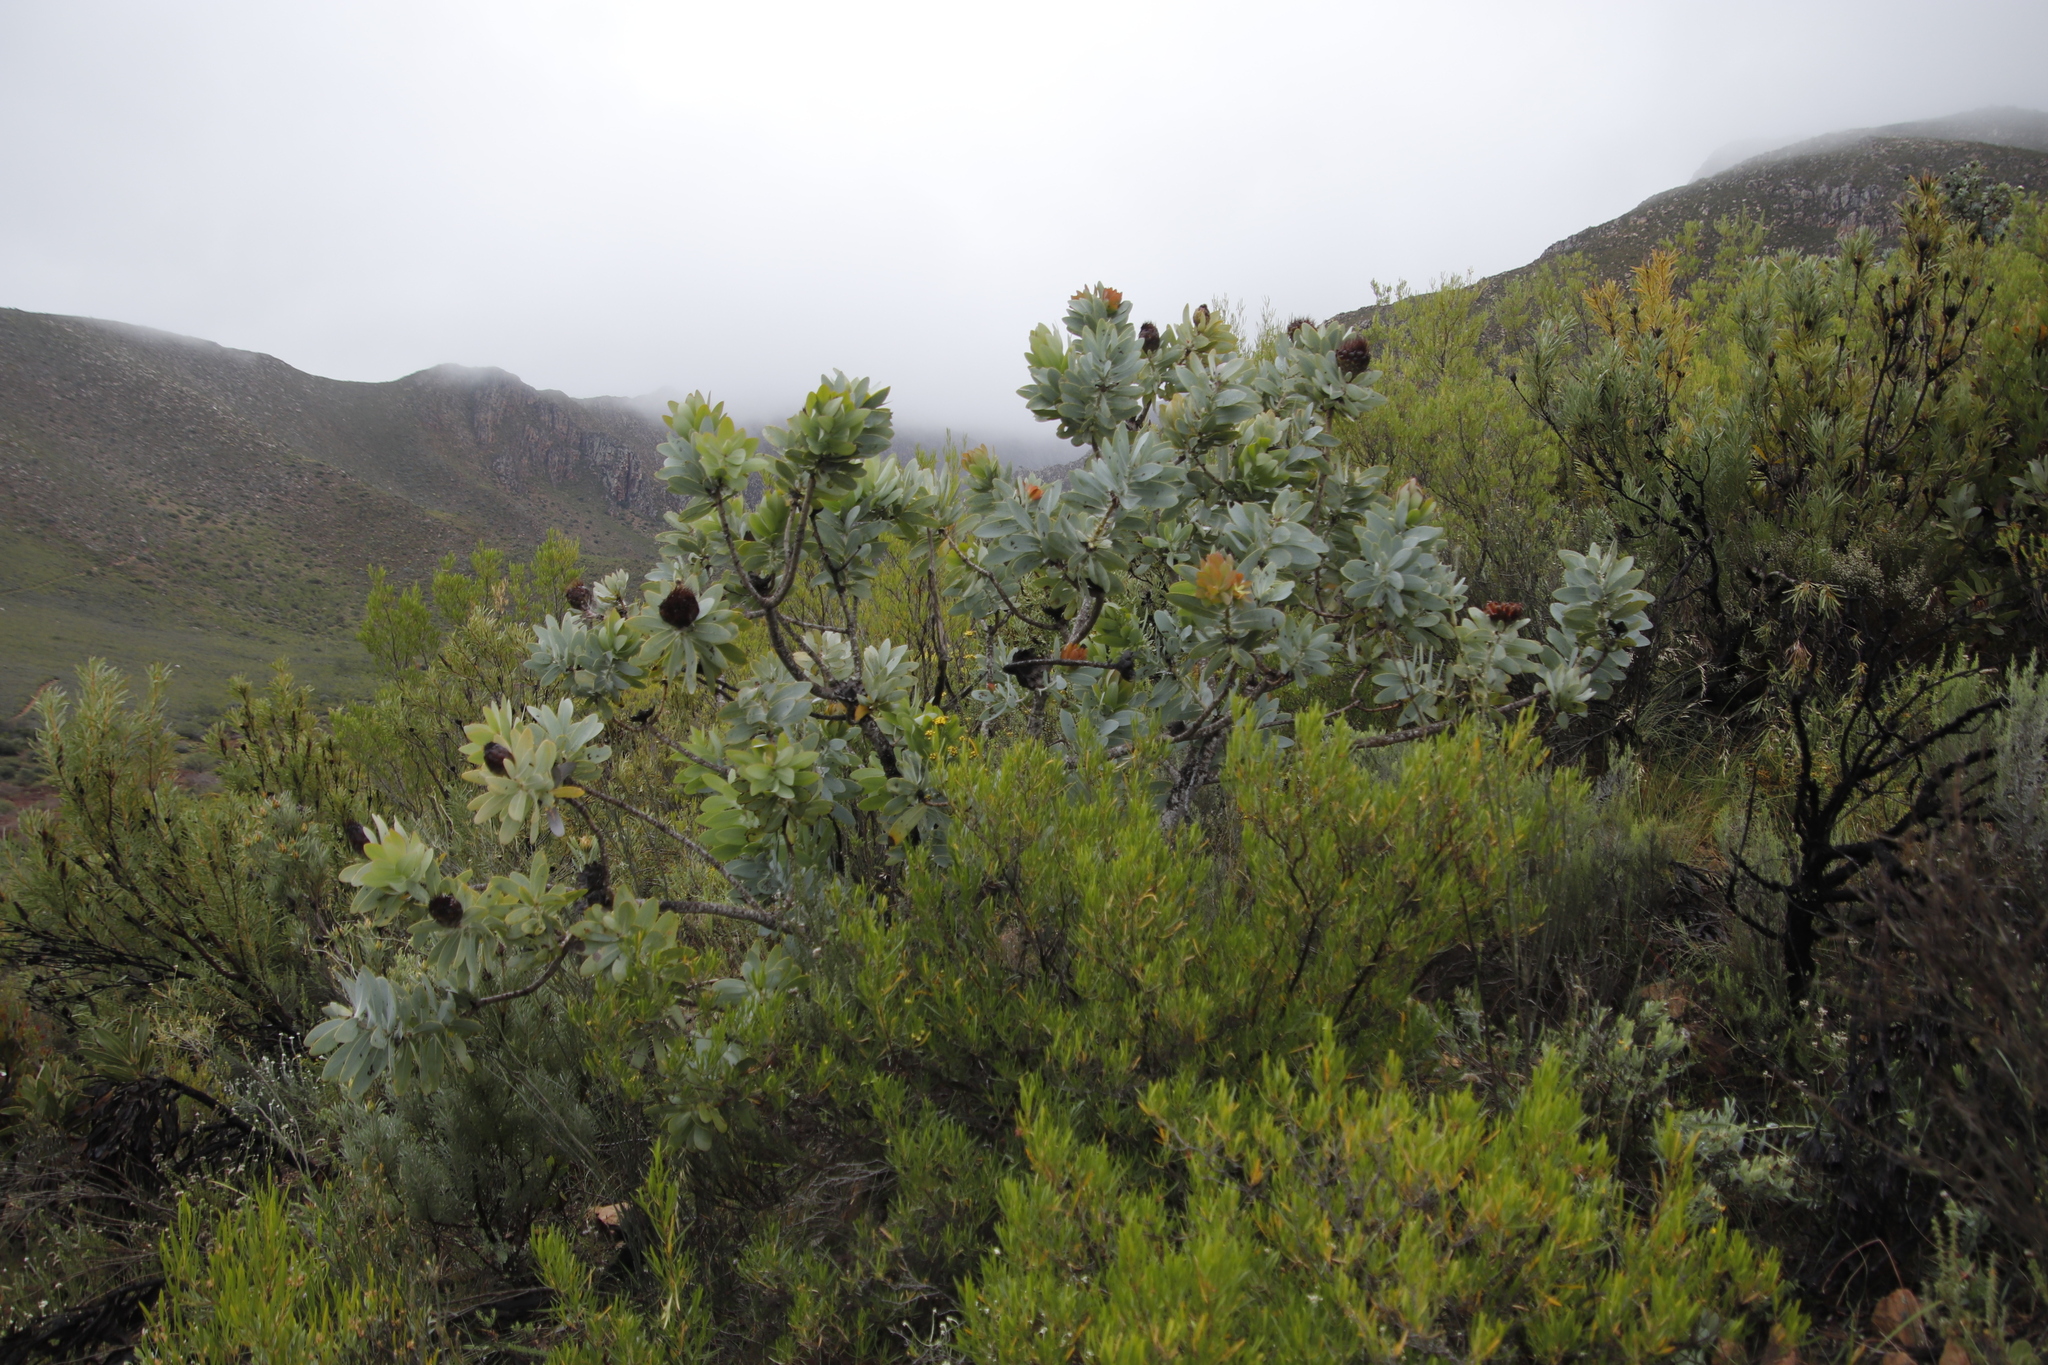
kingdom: Plantae
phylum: Tracheophyta
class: Magnoliopsida
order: Proteales
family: Proteaceae
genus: Protea
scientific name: Protea nitida
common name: Tree protea
